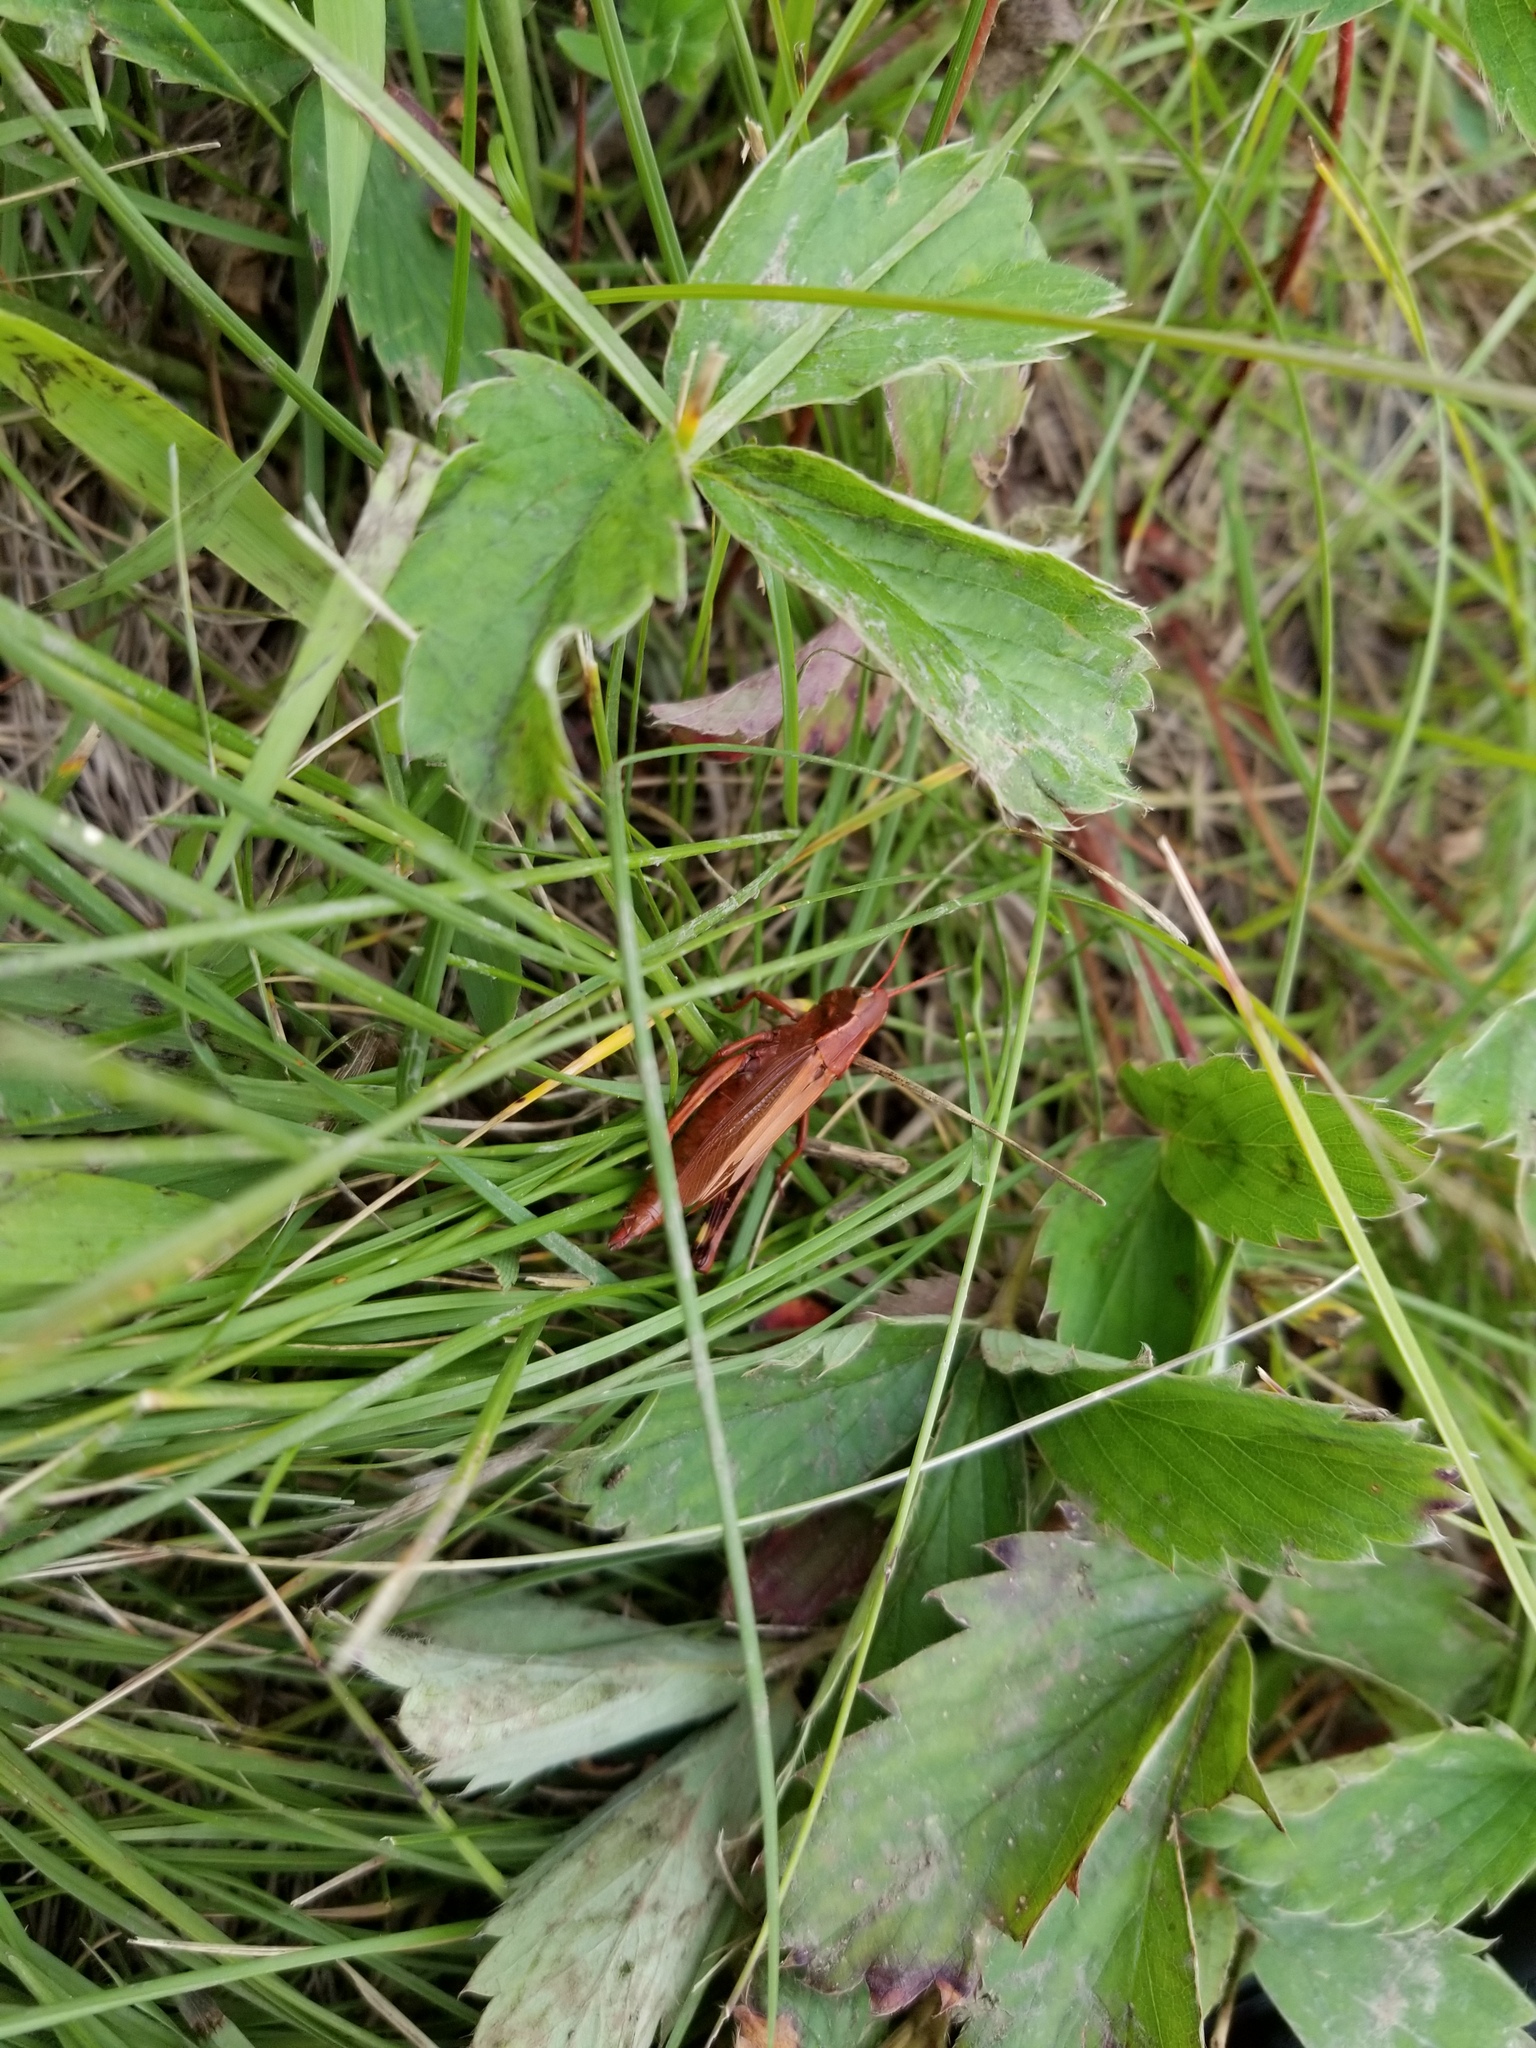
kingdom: Animalia
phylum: Arthropoda
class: Insecta
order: Orthoptera
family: Acrididae
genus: Stethophyma
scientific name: Stethophyma gracile
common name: Graceful sedge grasshopper
